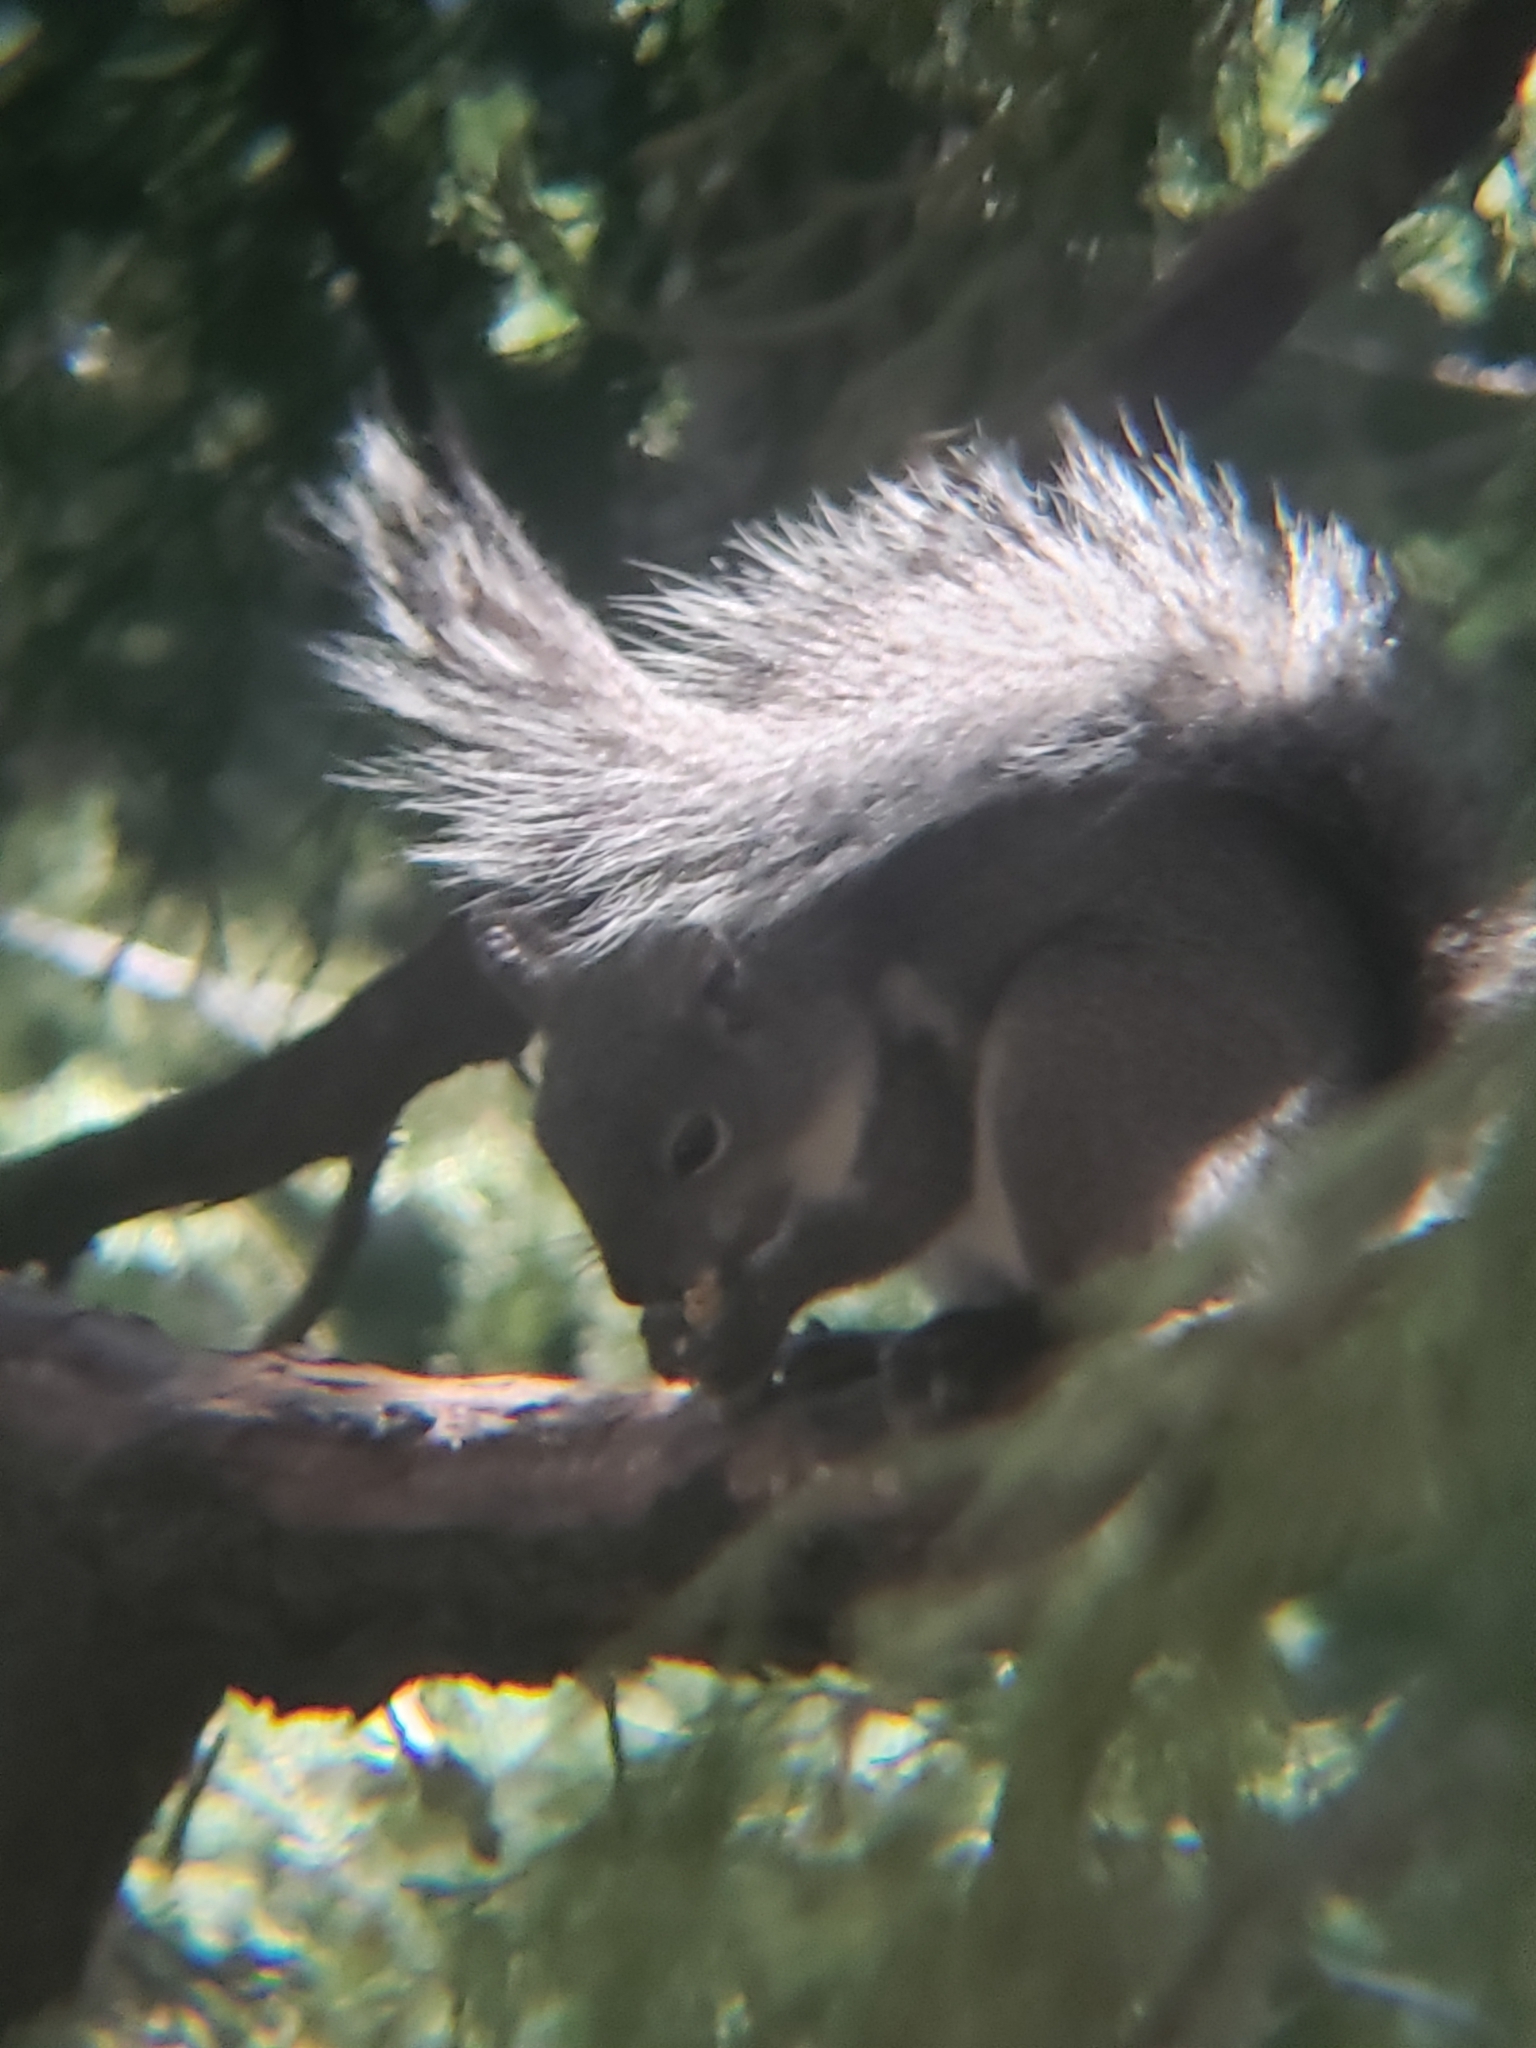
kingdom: Animalia
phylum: Chordata
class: Mammalia
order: Rodentia
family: Sciuridae
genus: Sciurus
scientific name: Sciurus griseus
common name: Western gray squirrel
